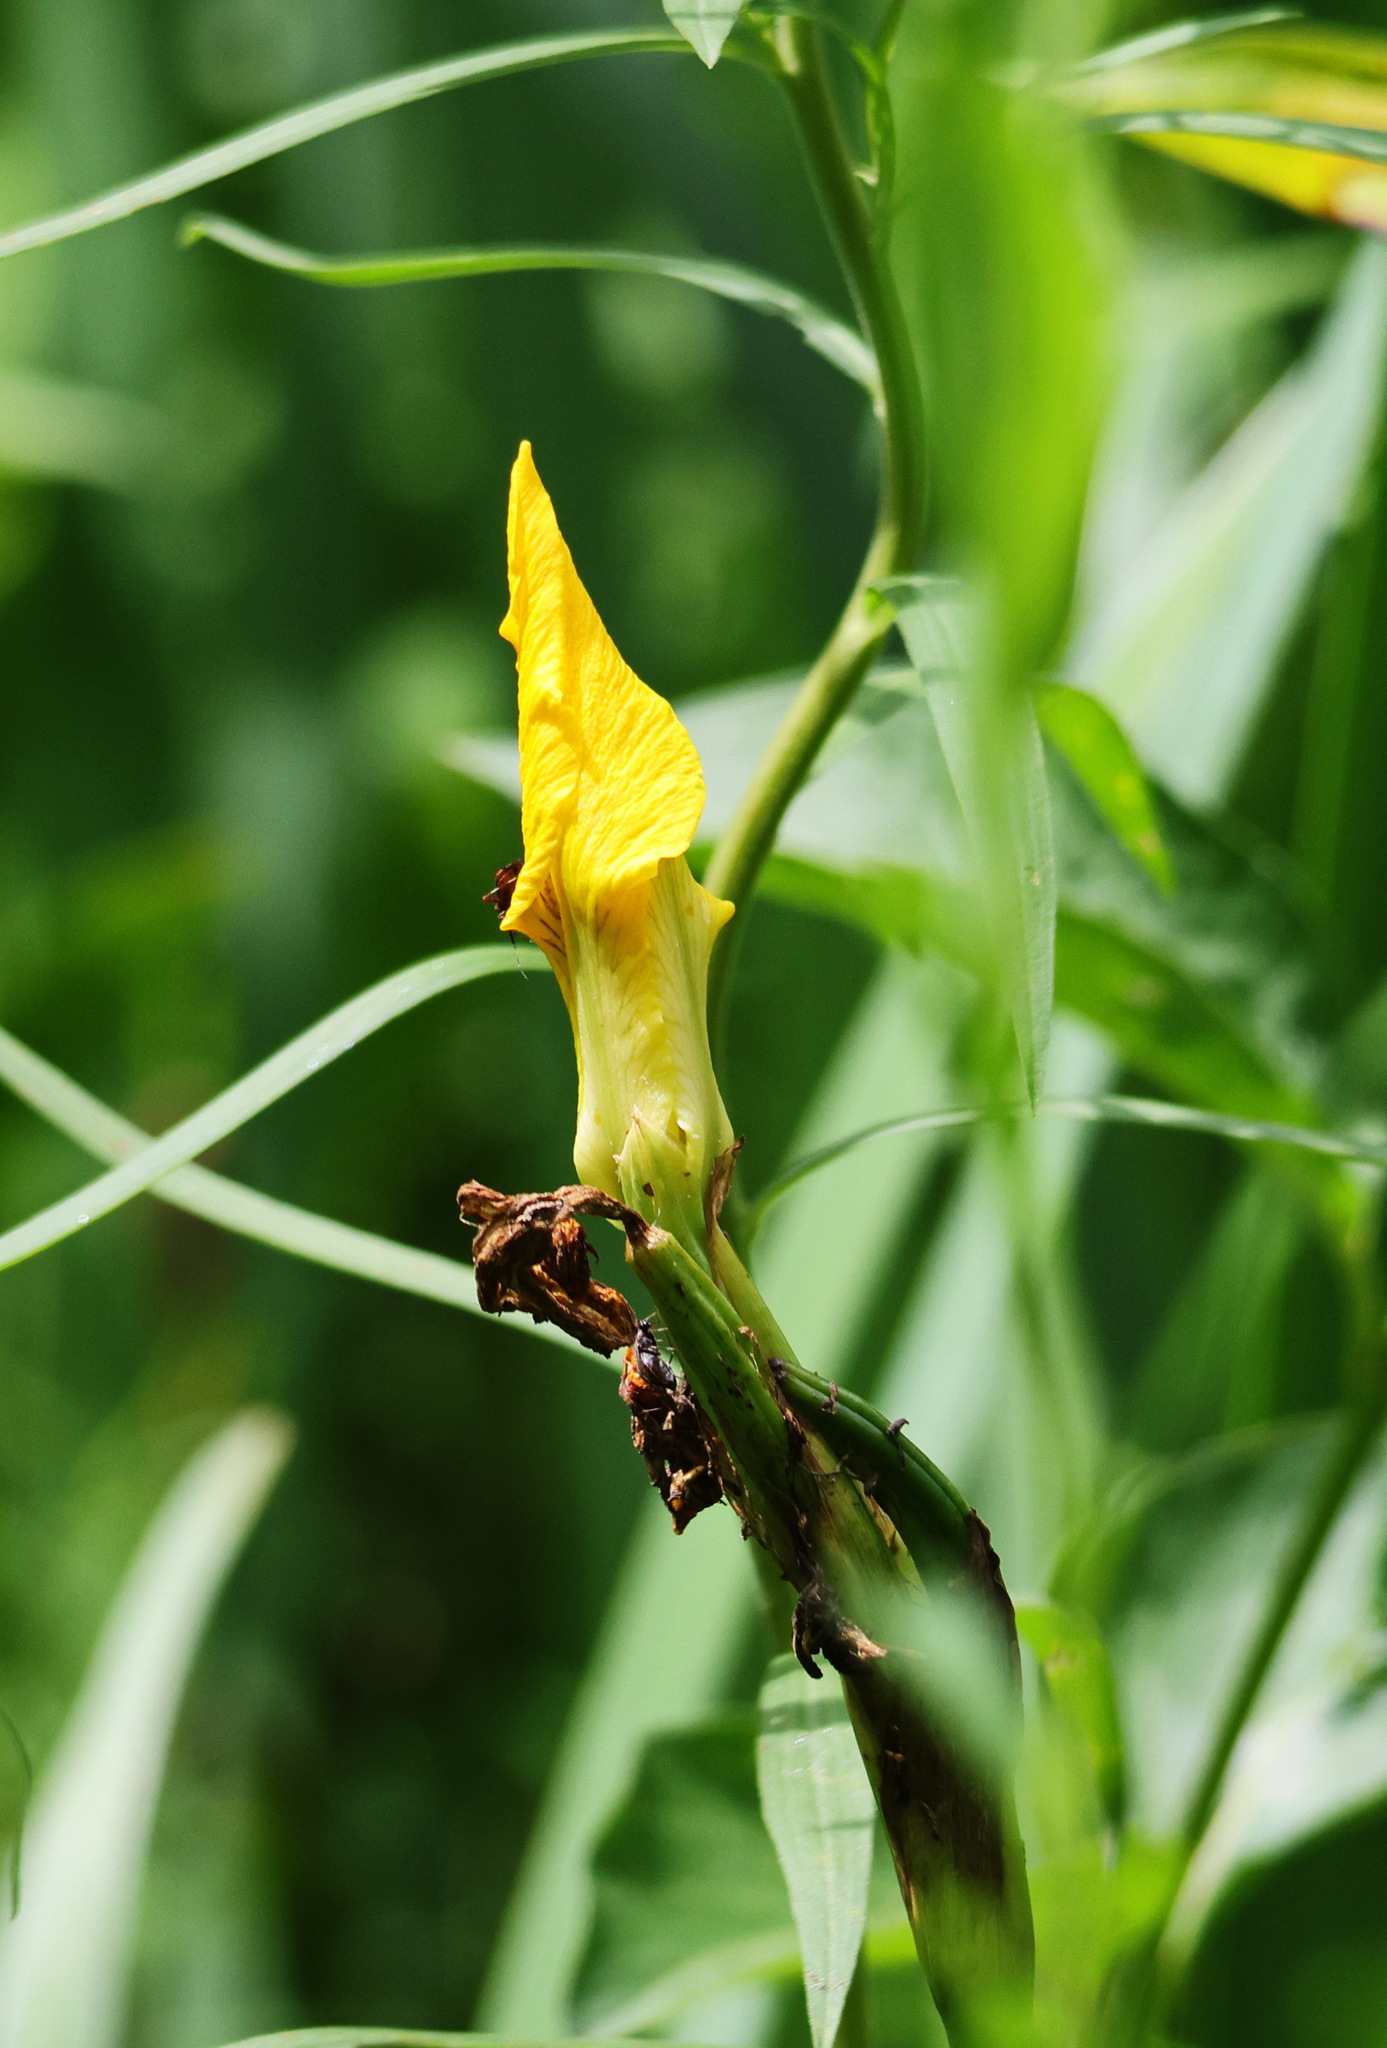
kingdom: Plantae
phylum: Tracheophyta
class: Liliopsida
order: Asparagales
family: Iridaceae
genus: Iris
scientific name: Iris pseudacorus
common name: Yellow flag
